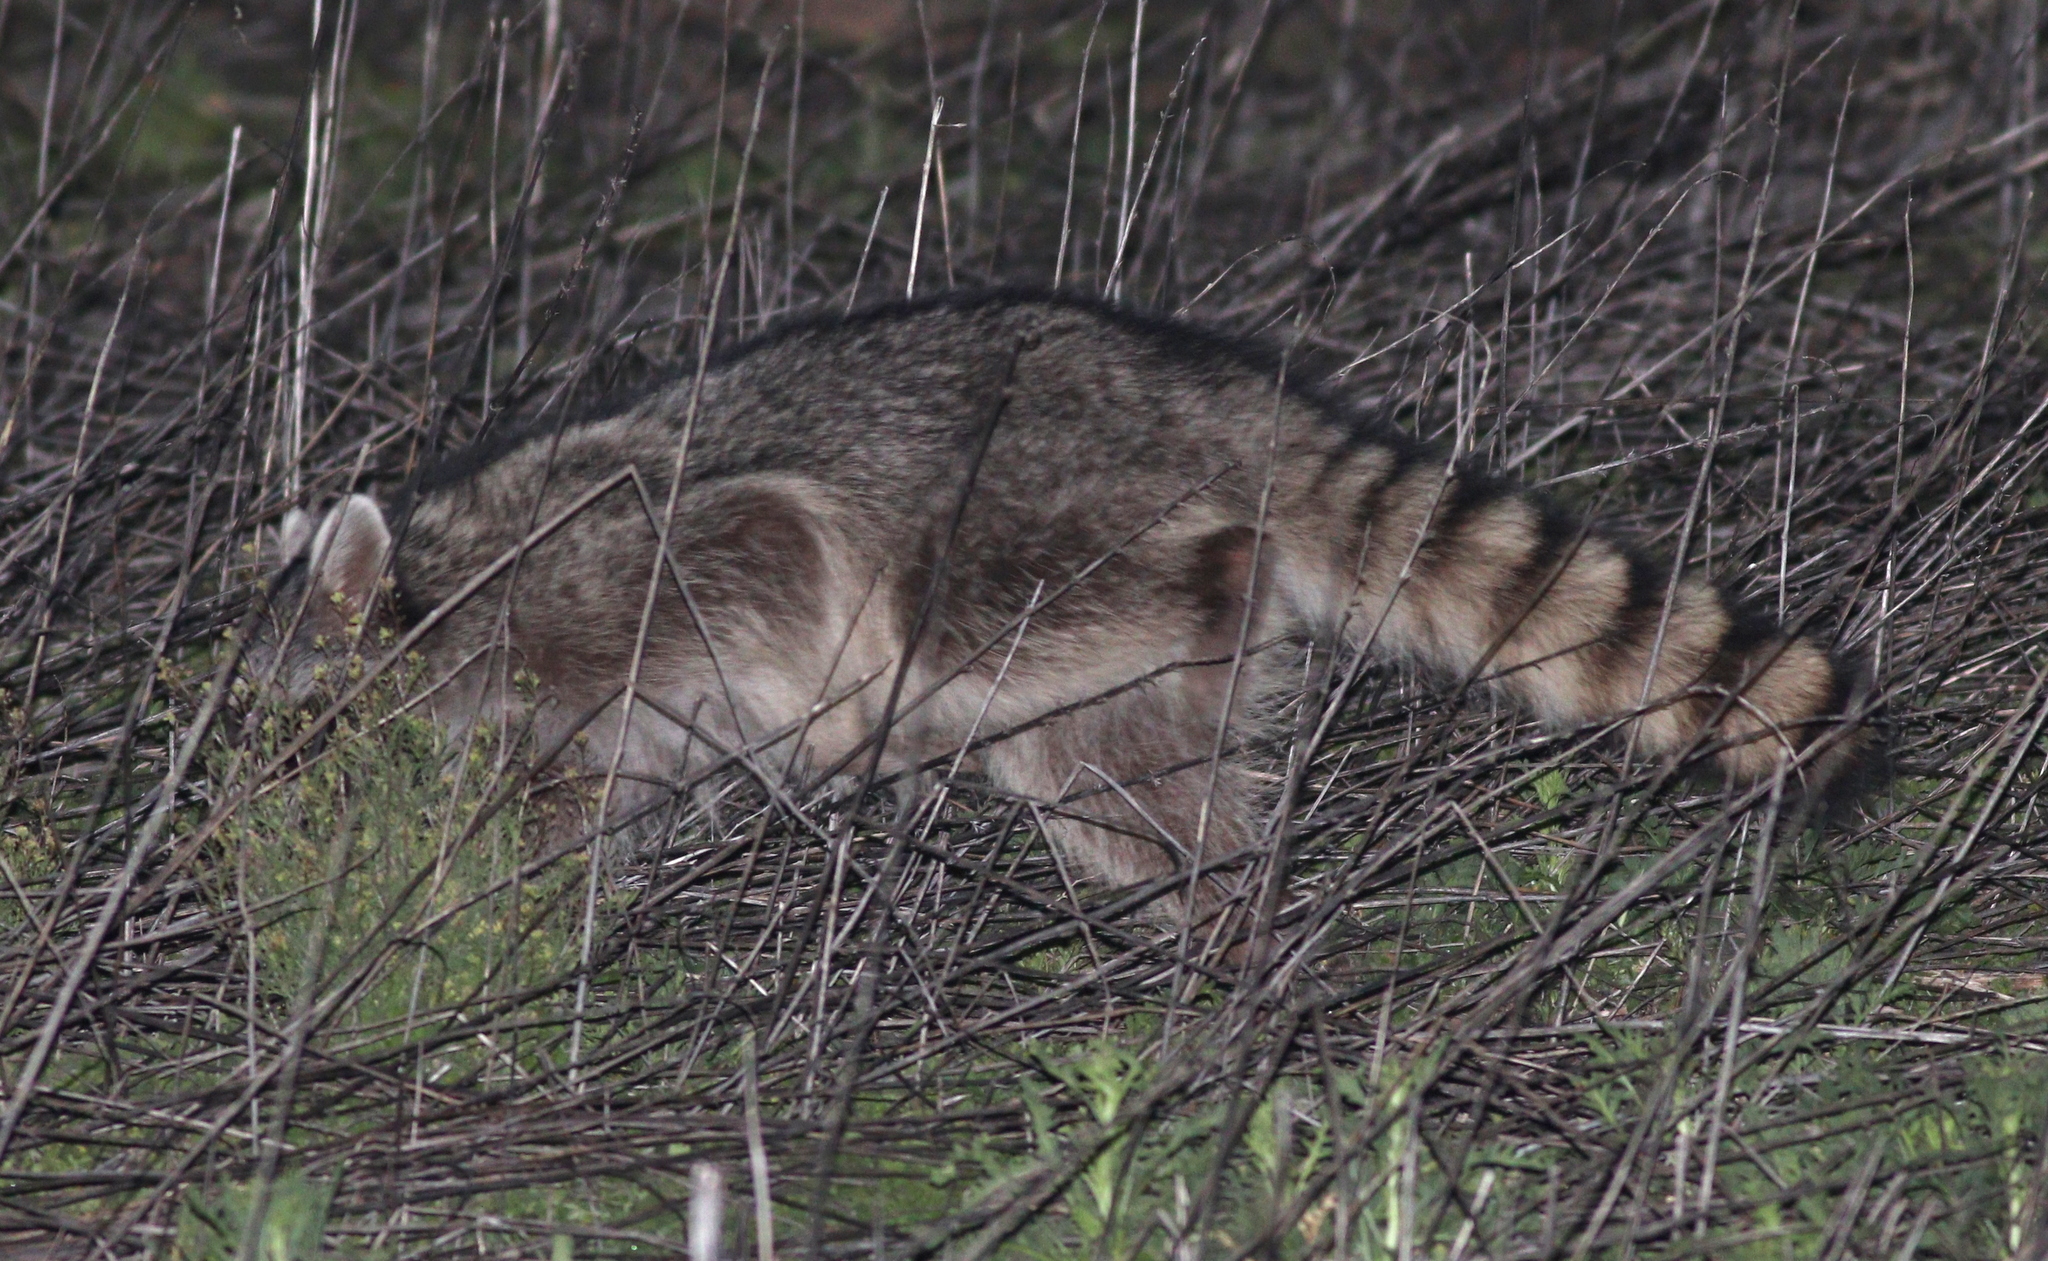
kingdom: Animalia
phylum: Chordata
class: Mammalia
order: Carnivora
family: Procyonidae
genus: Procyon
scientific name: Procyon lotor
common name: Raccoon
